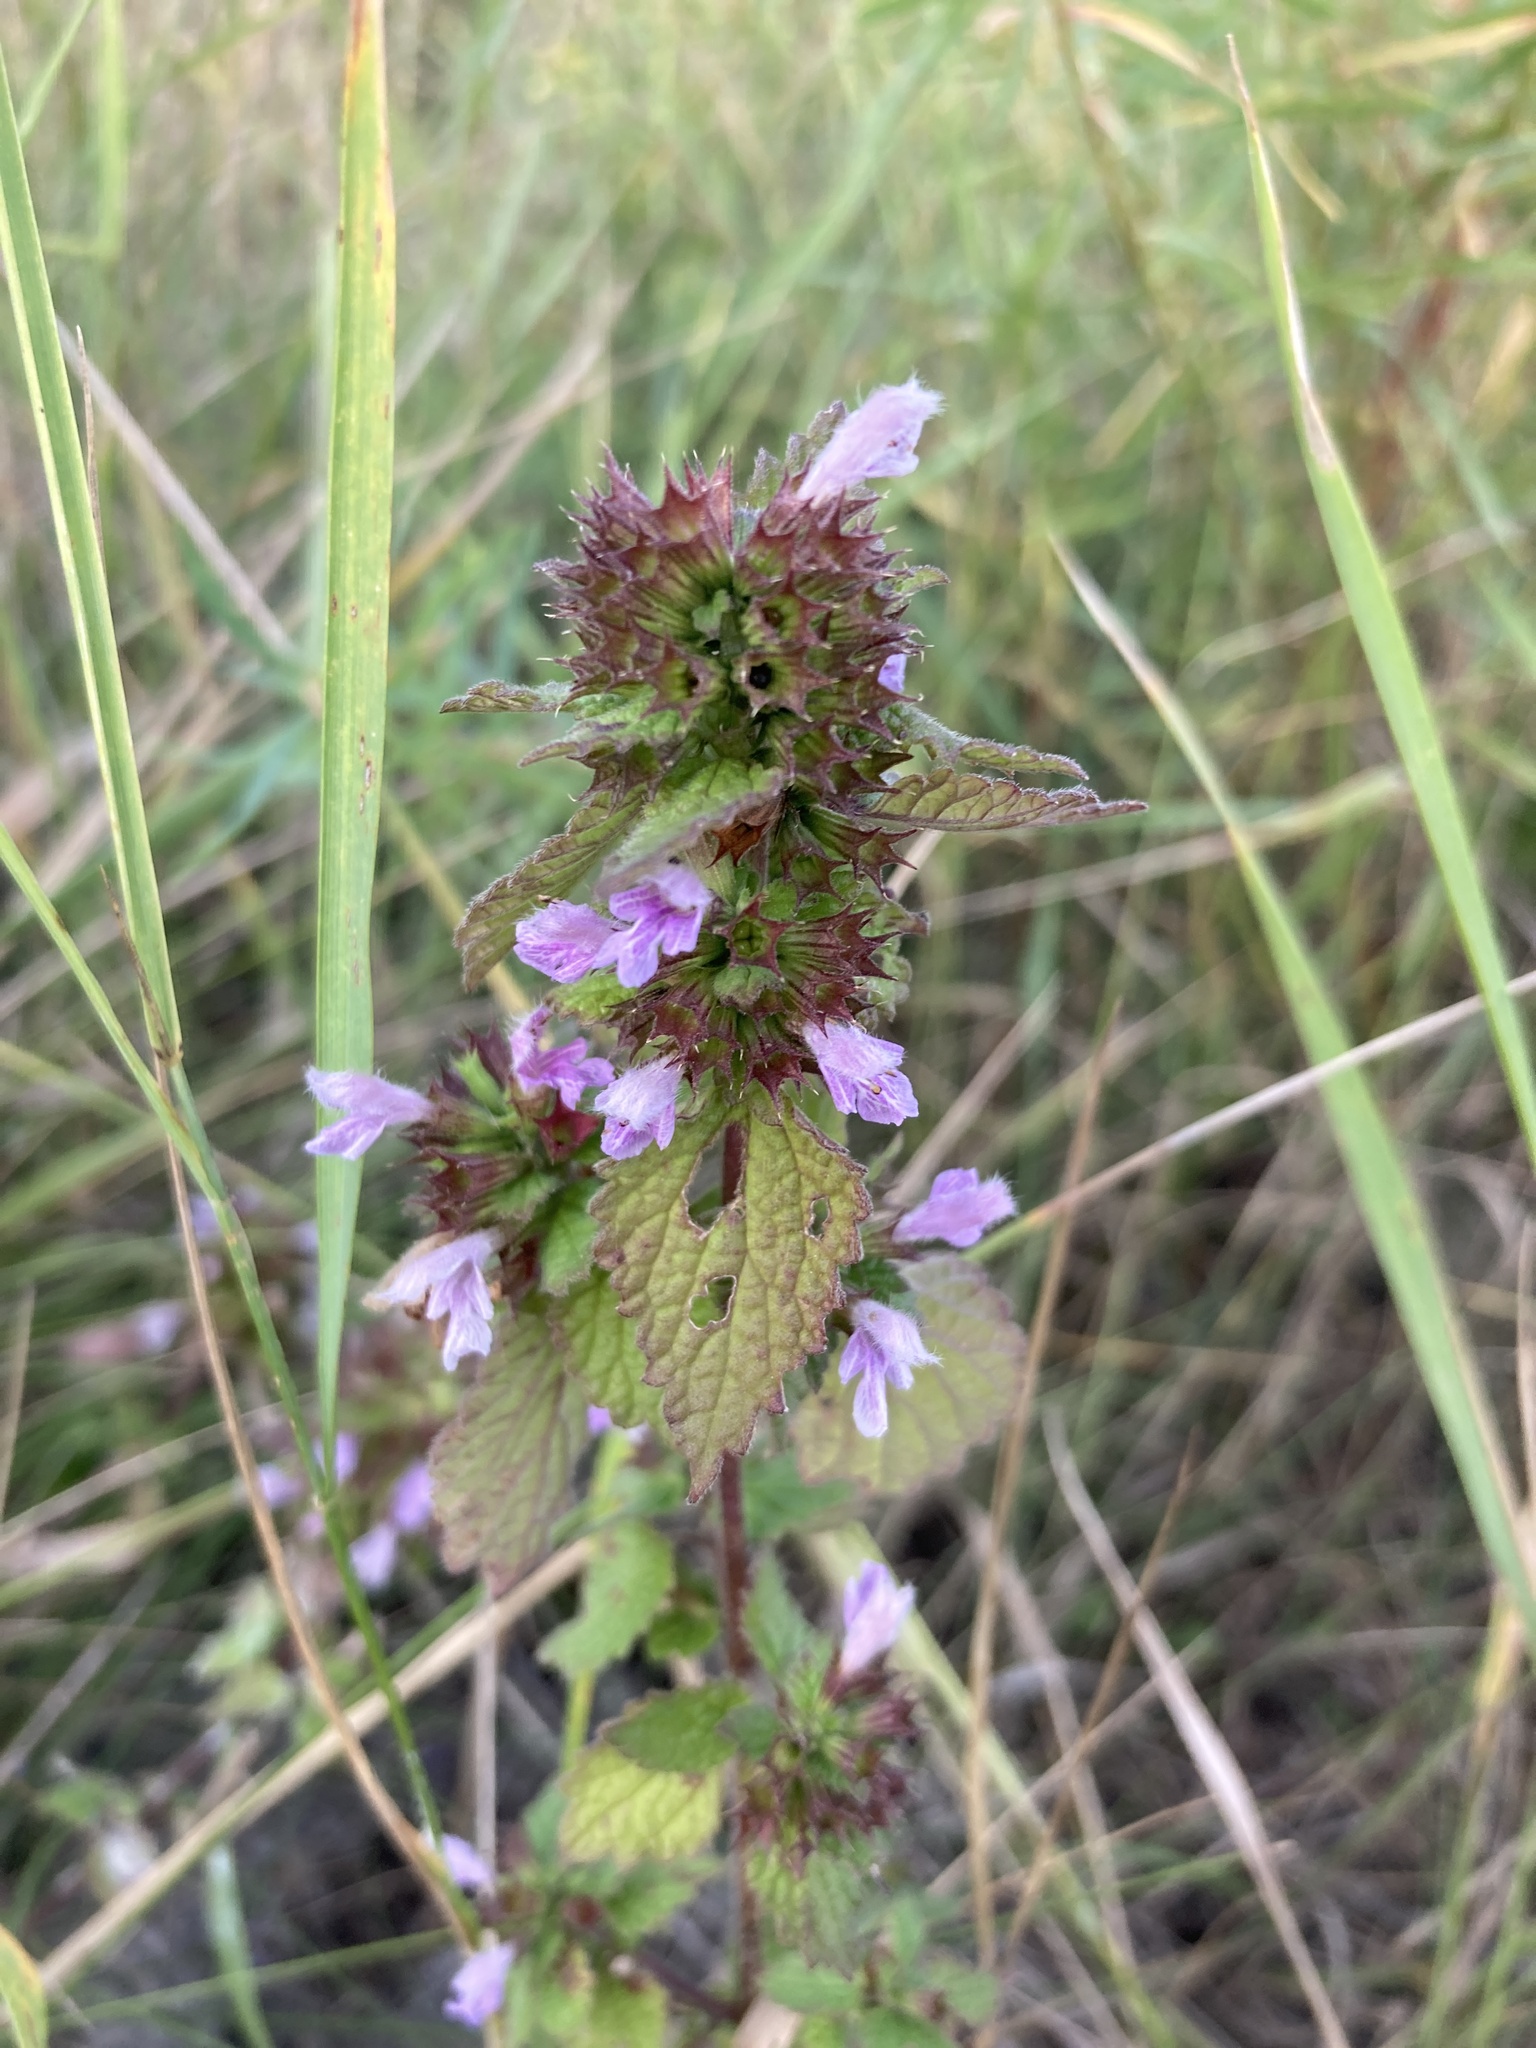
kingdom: Plantae
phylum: Tracheophyta
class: Magnoliopsida
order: Lamiales
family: Lamiaceae
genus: Ballota
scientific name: Ballota nigra
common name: Black horehound
